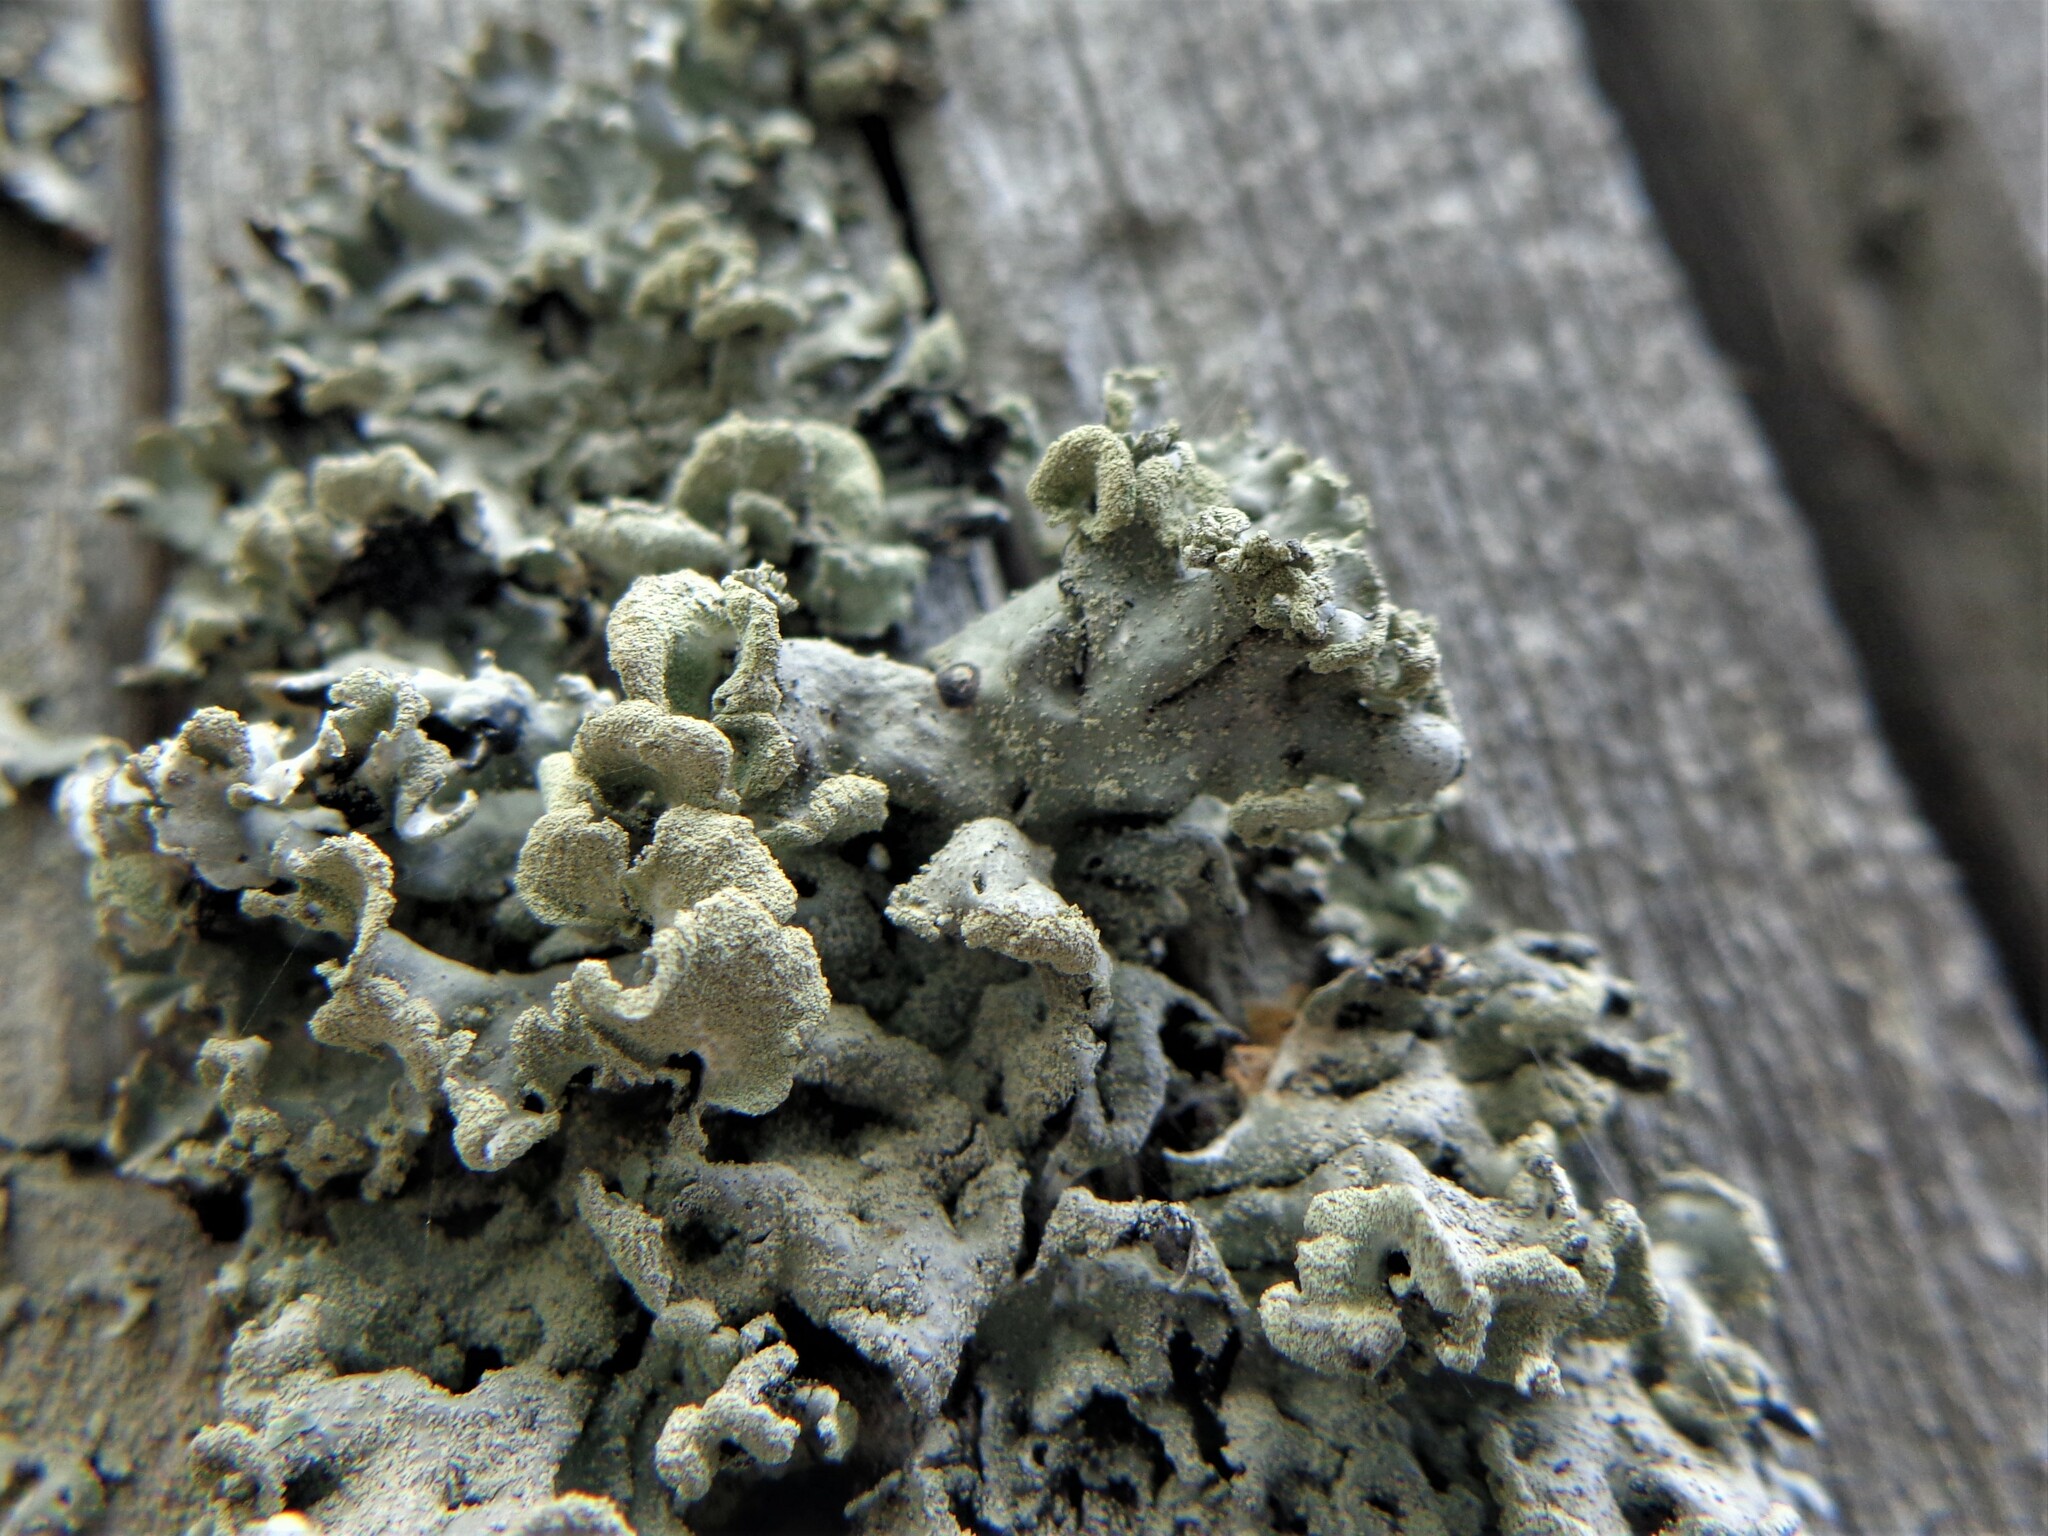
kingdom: Fungi
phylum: Ascomycota
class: Lecanoromycetes
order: Lecanorales
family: Parmeliaceae
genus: Hypogymnia
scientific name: Hypogymnia physodes
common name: Dark crottle
